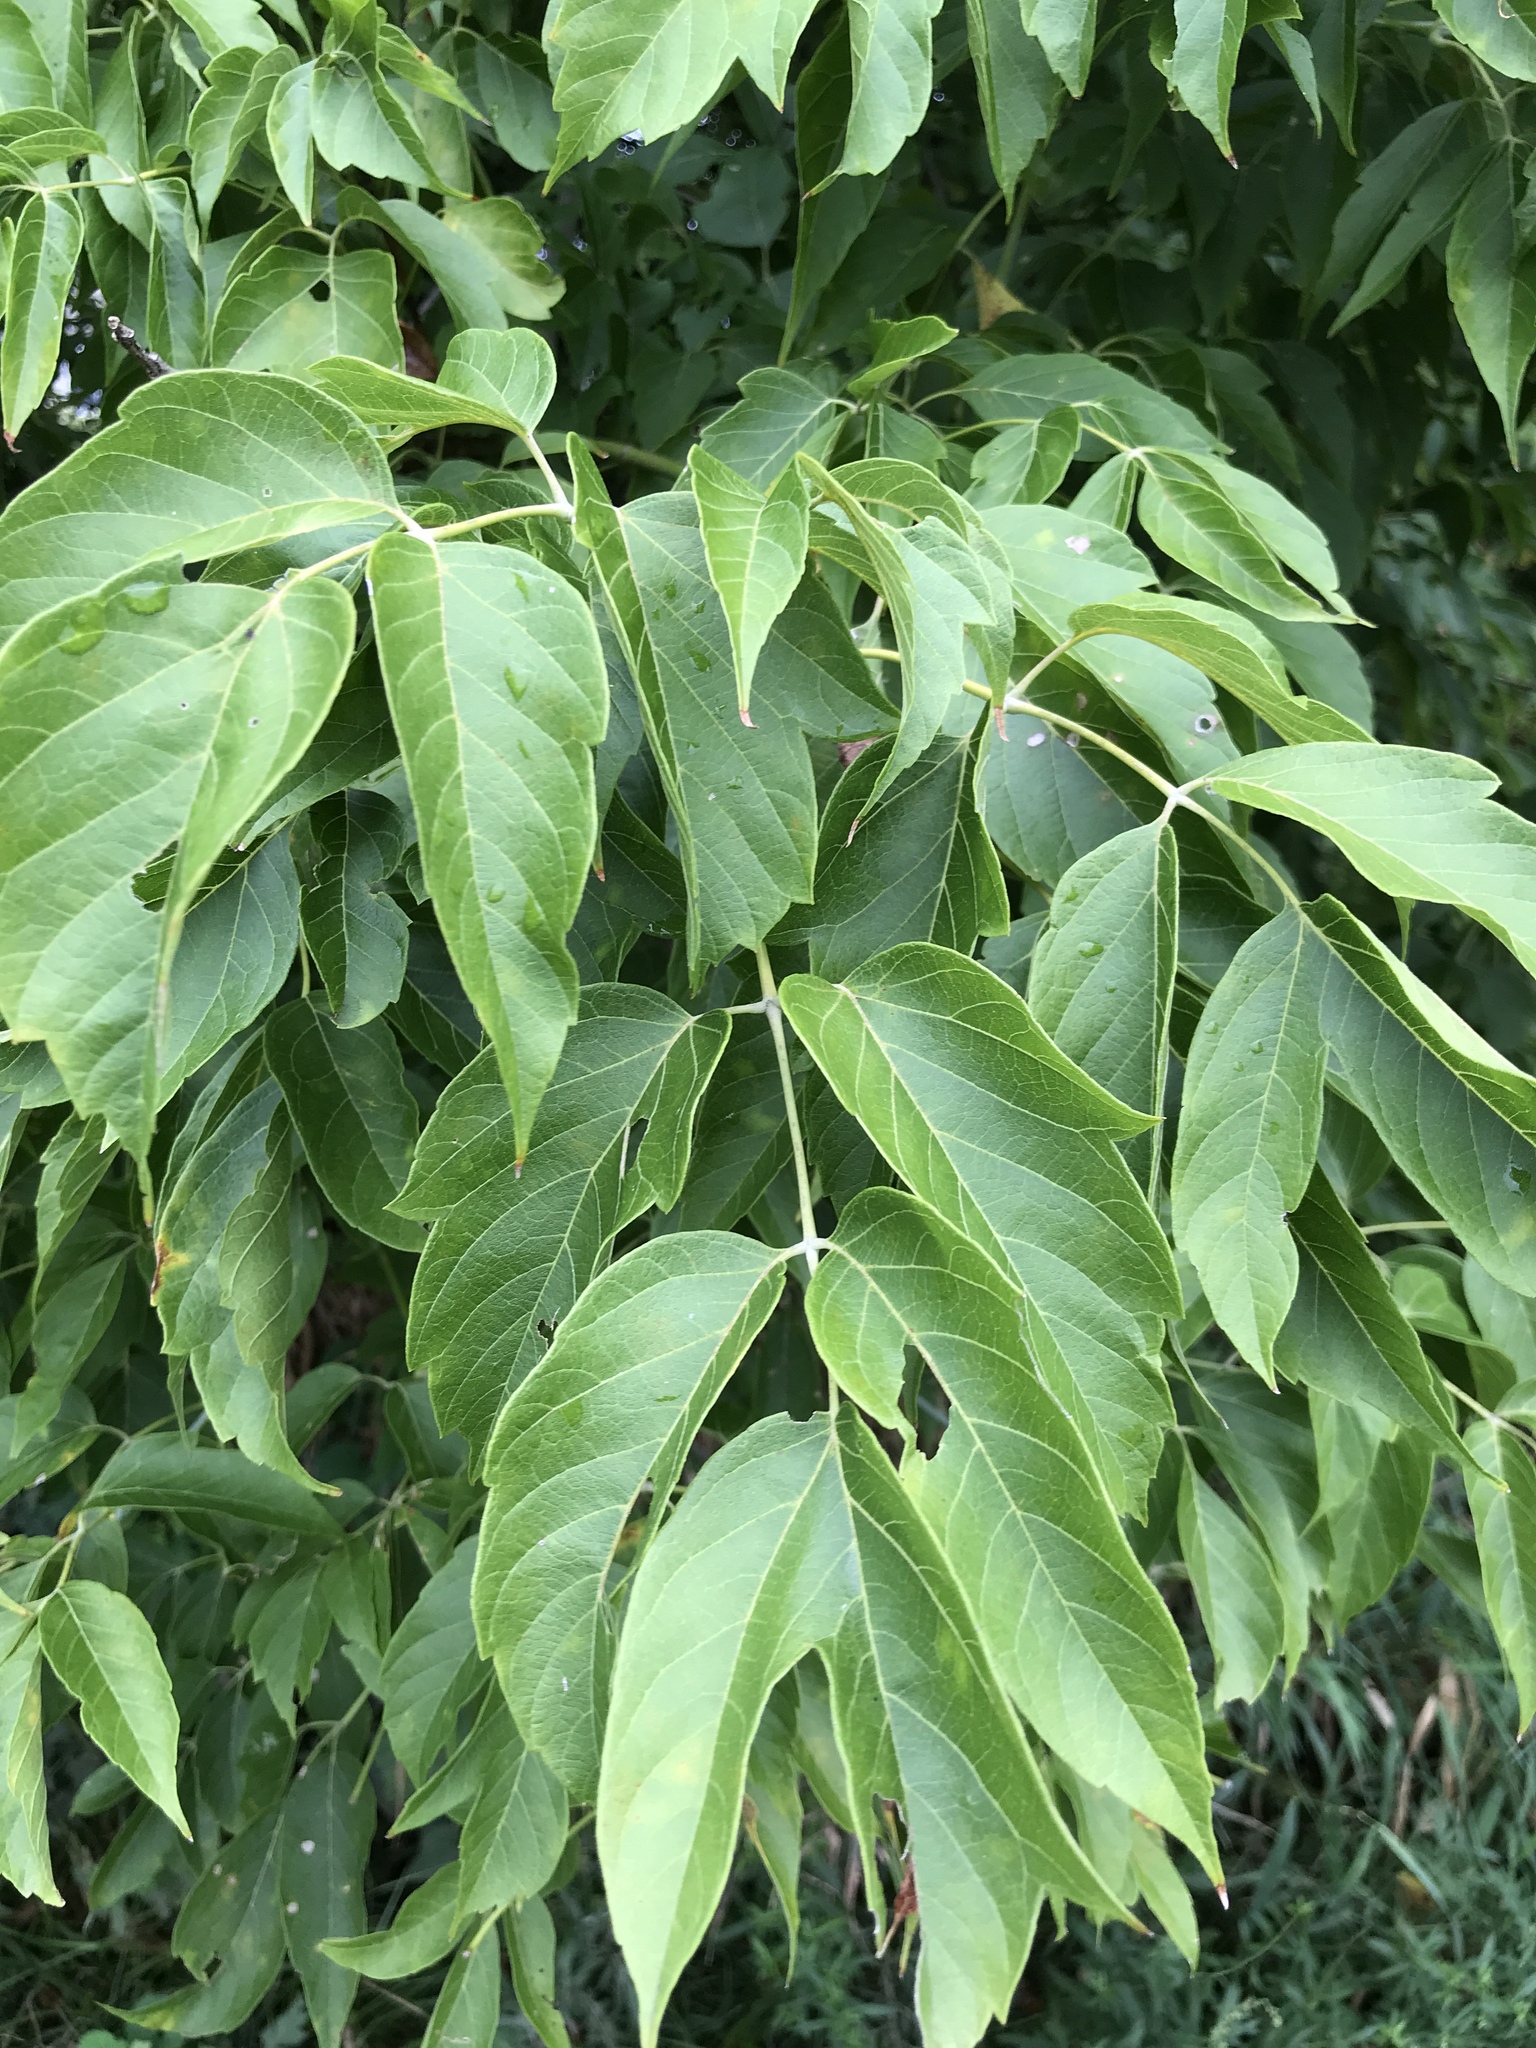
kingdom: Plantae
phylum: Tracheophyta
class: Magnoliopsida
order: Sapindales
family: Sapindaceae
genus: Acer
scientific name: Acer negundo
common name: Ashleaf maple
